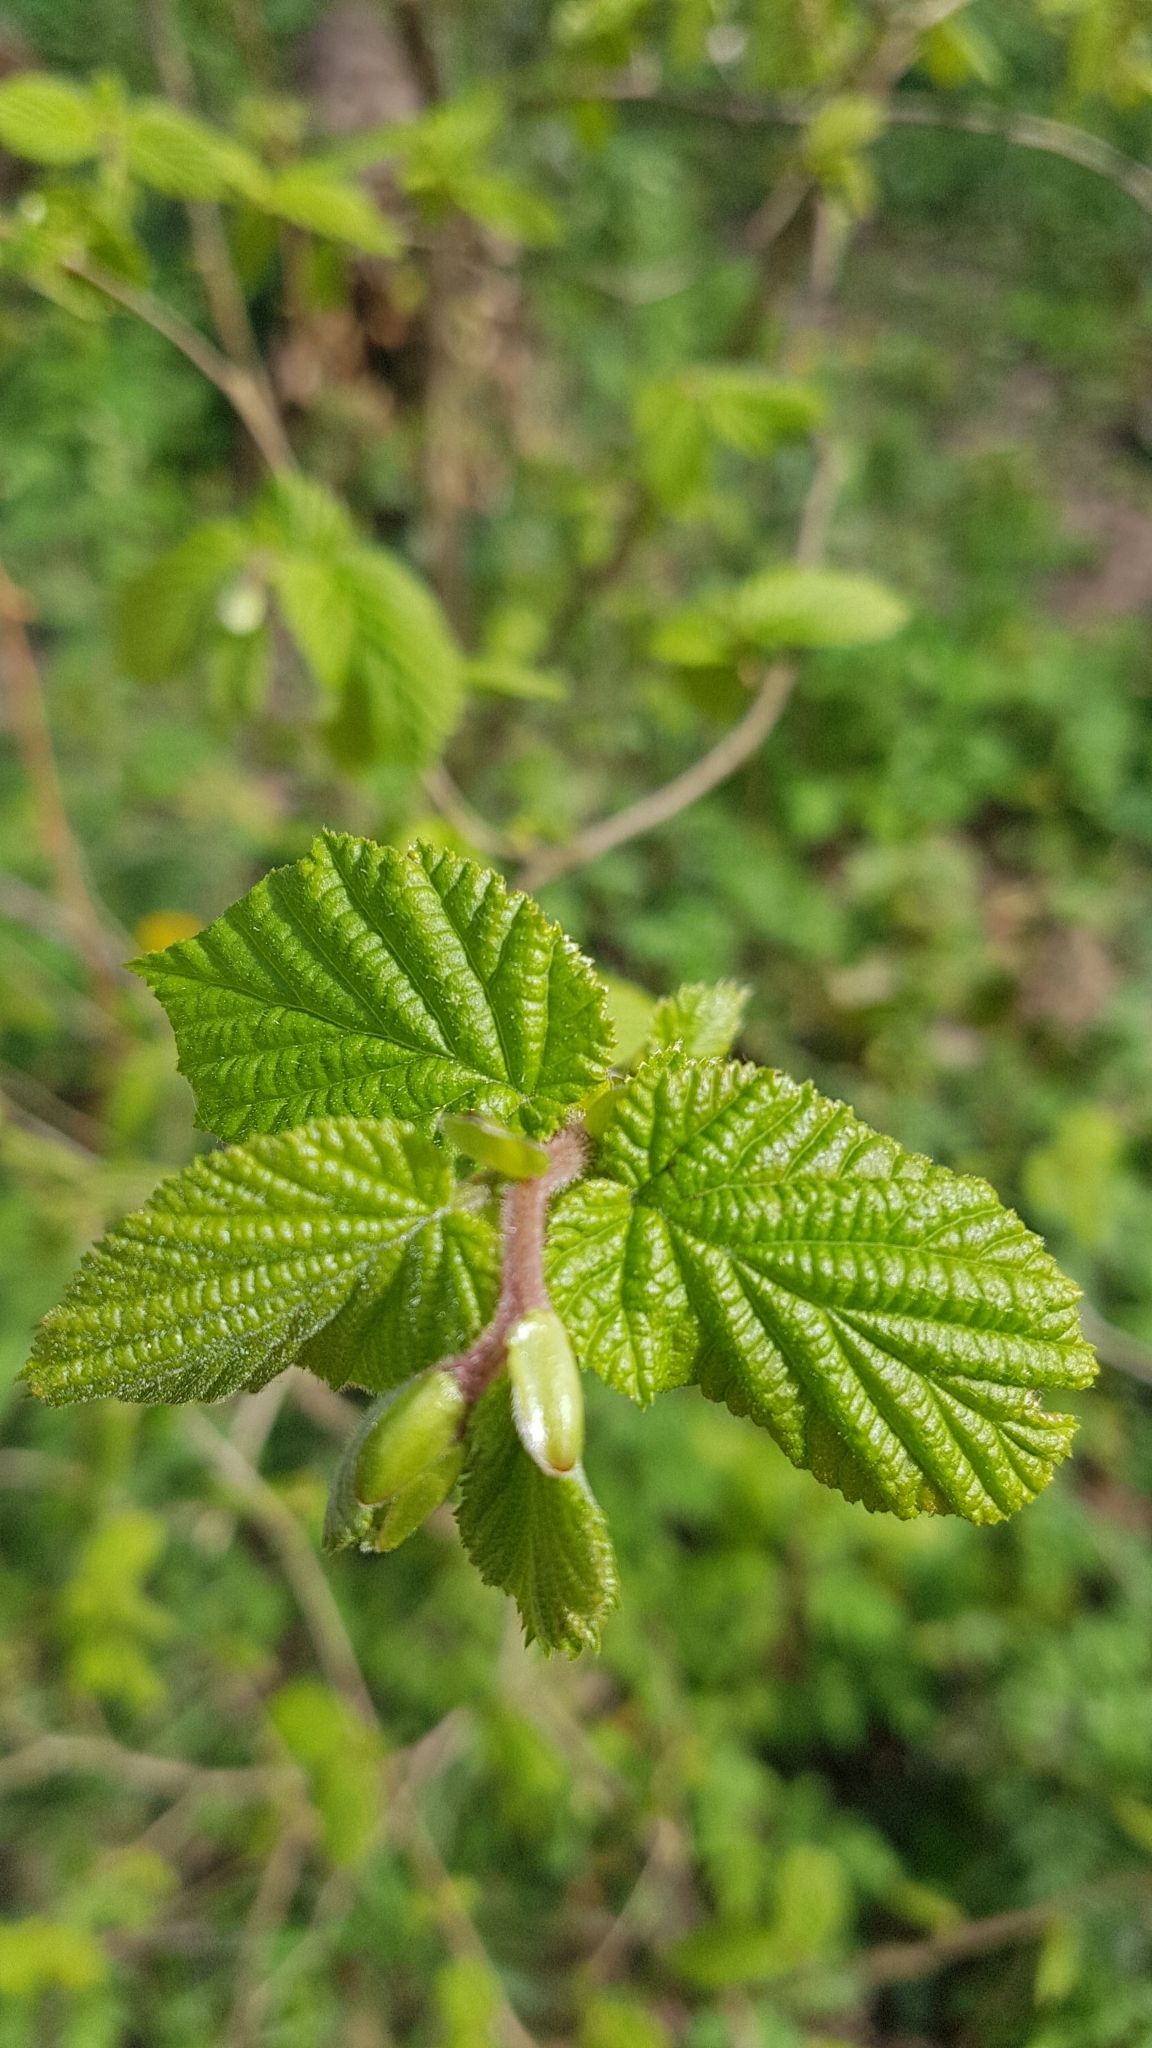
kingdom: Plantae
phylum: Tracheophyta
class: Magnoliopsida
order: Fagales
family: Betulaceae
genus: Corylus
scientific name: Corylus avellana
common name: European hazel
